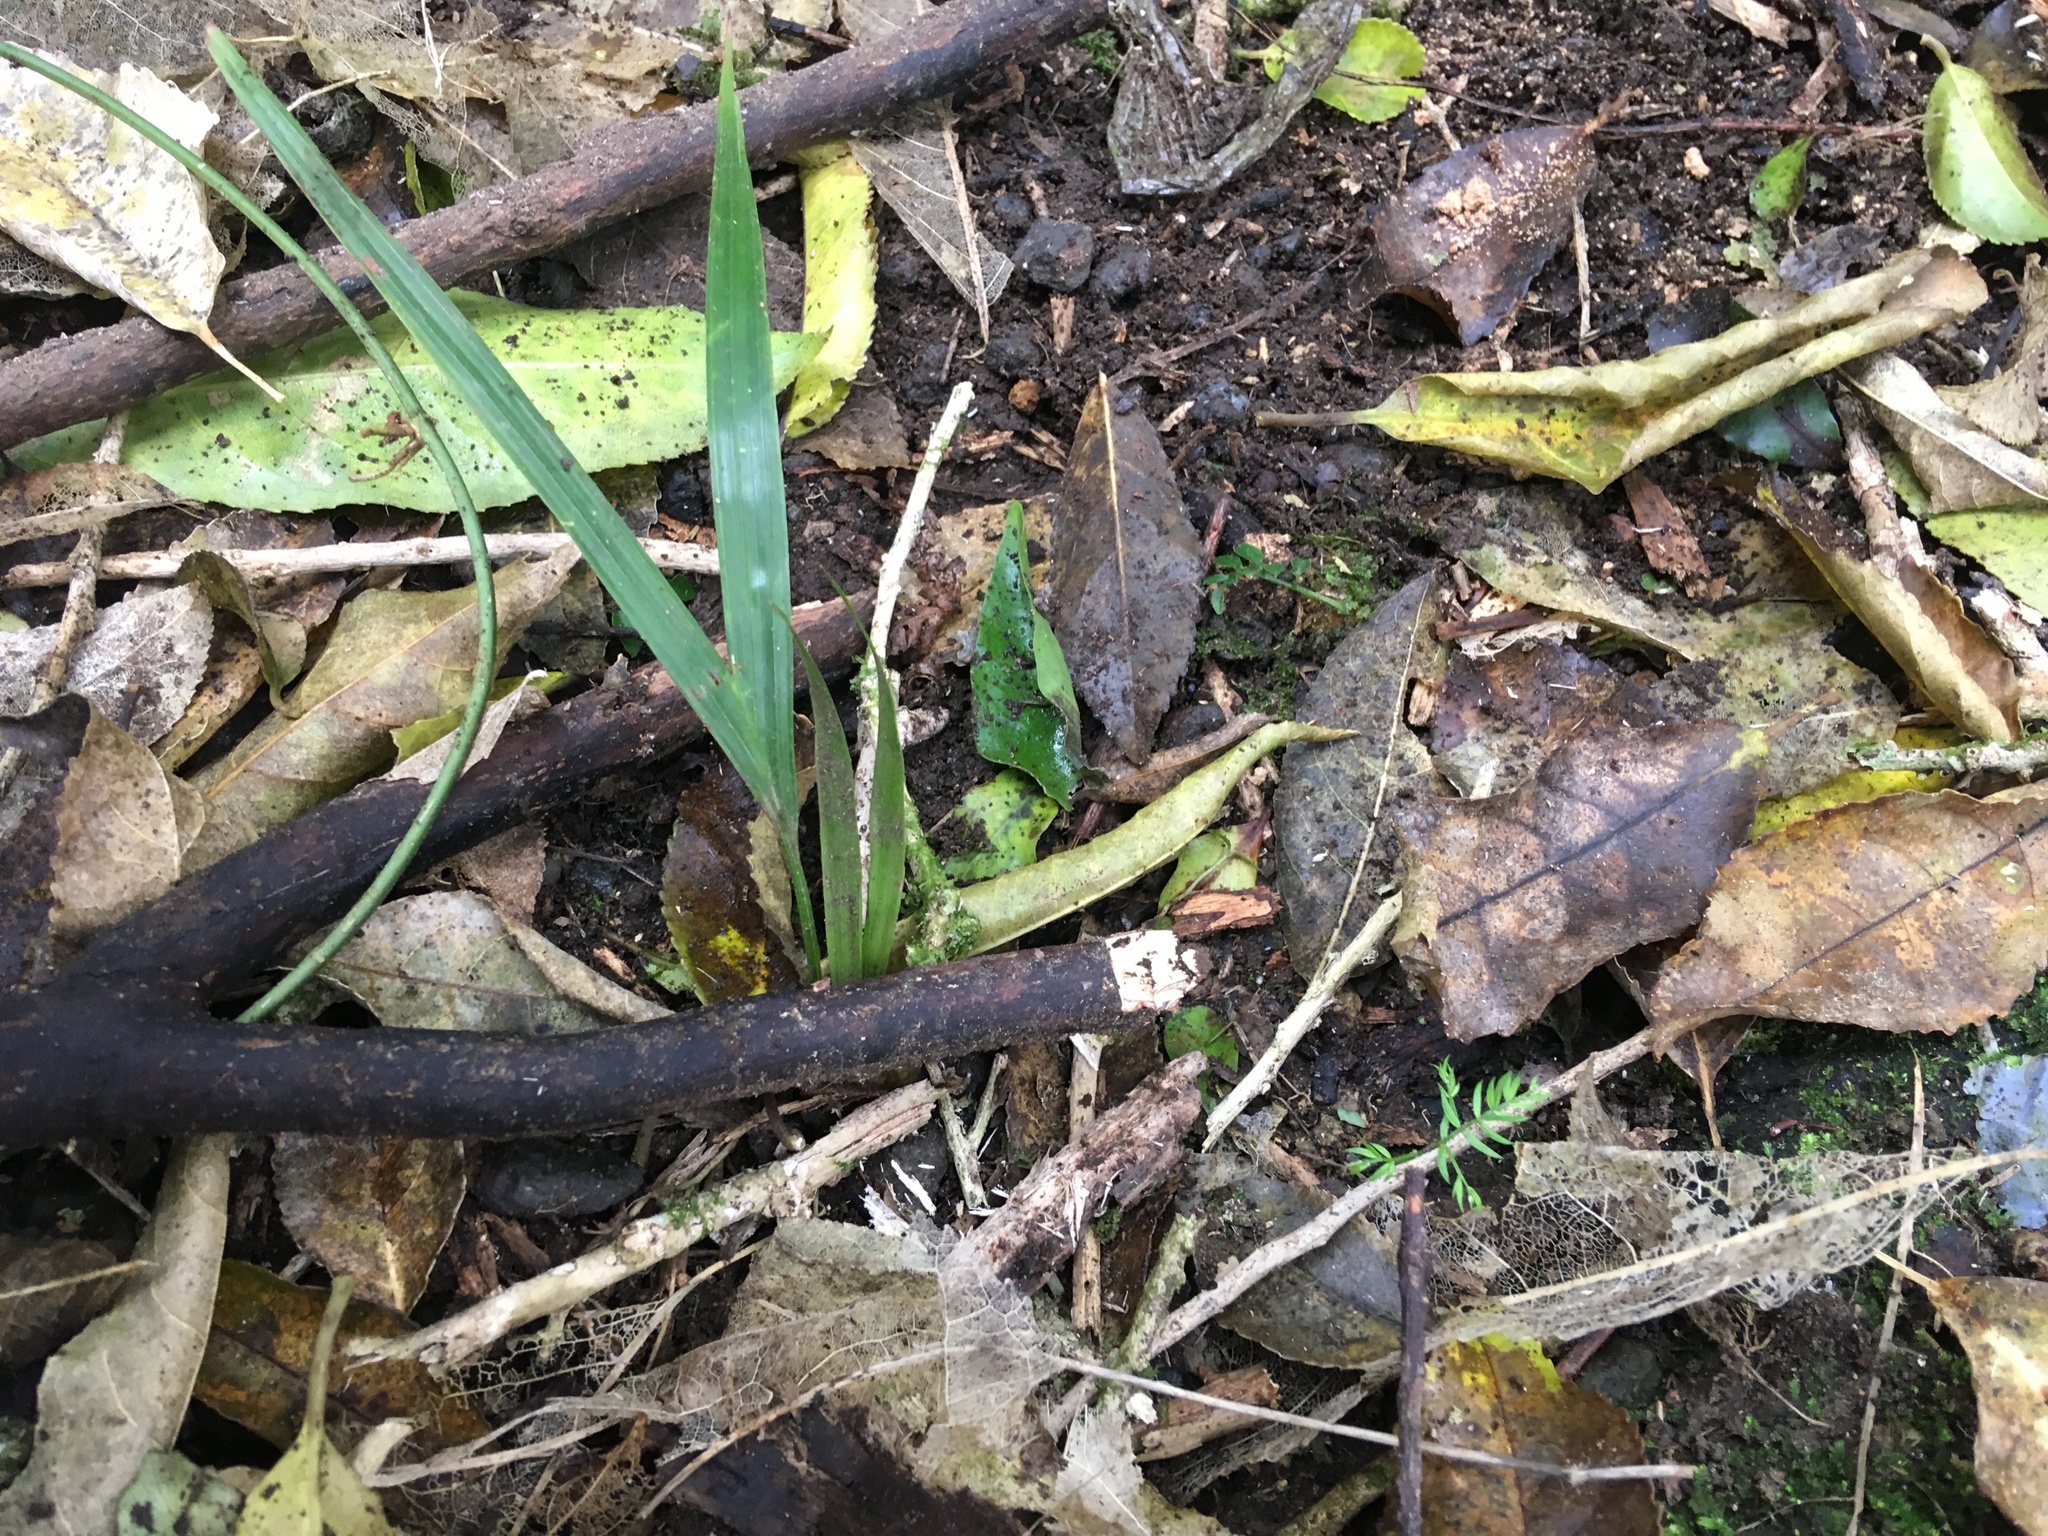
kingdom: Plantae
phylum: Tracheophyta
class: Liliopsida
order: Arecales
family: Arecaceae
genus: Rhopalostylis
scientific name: Rhopalostylis sapida
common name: Feather-duster palm
